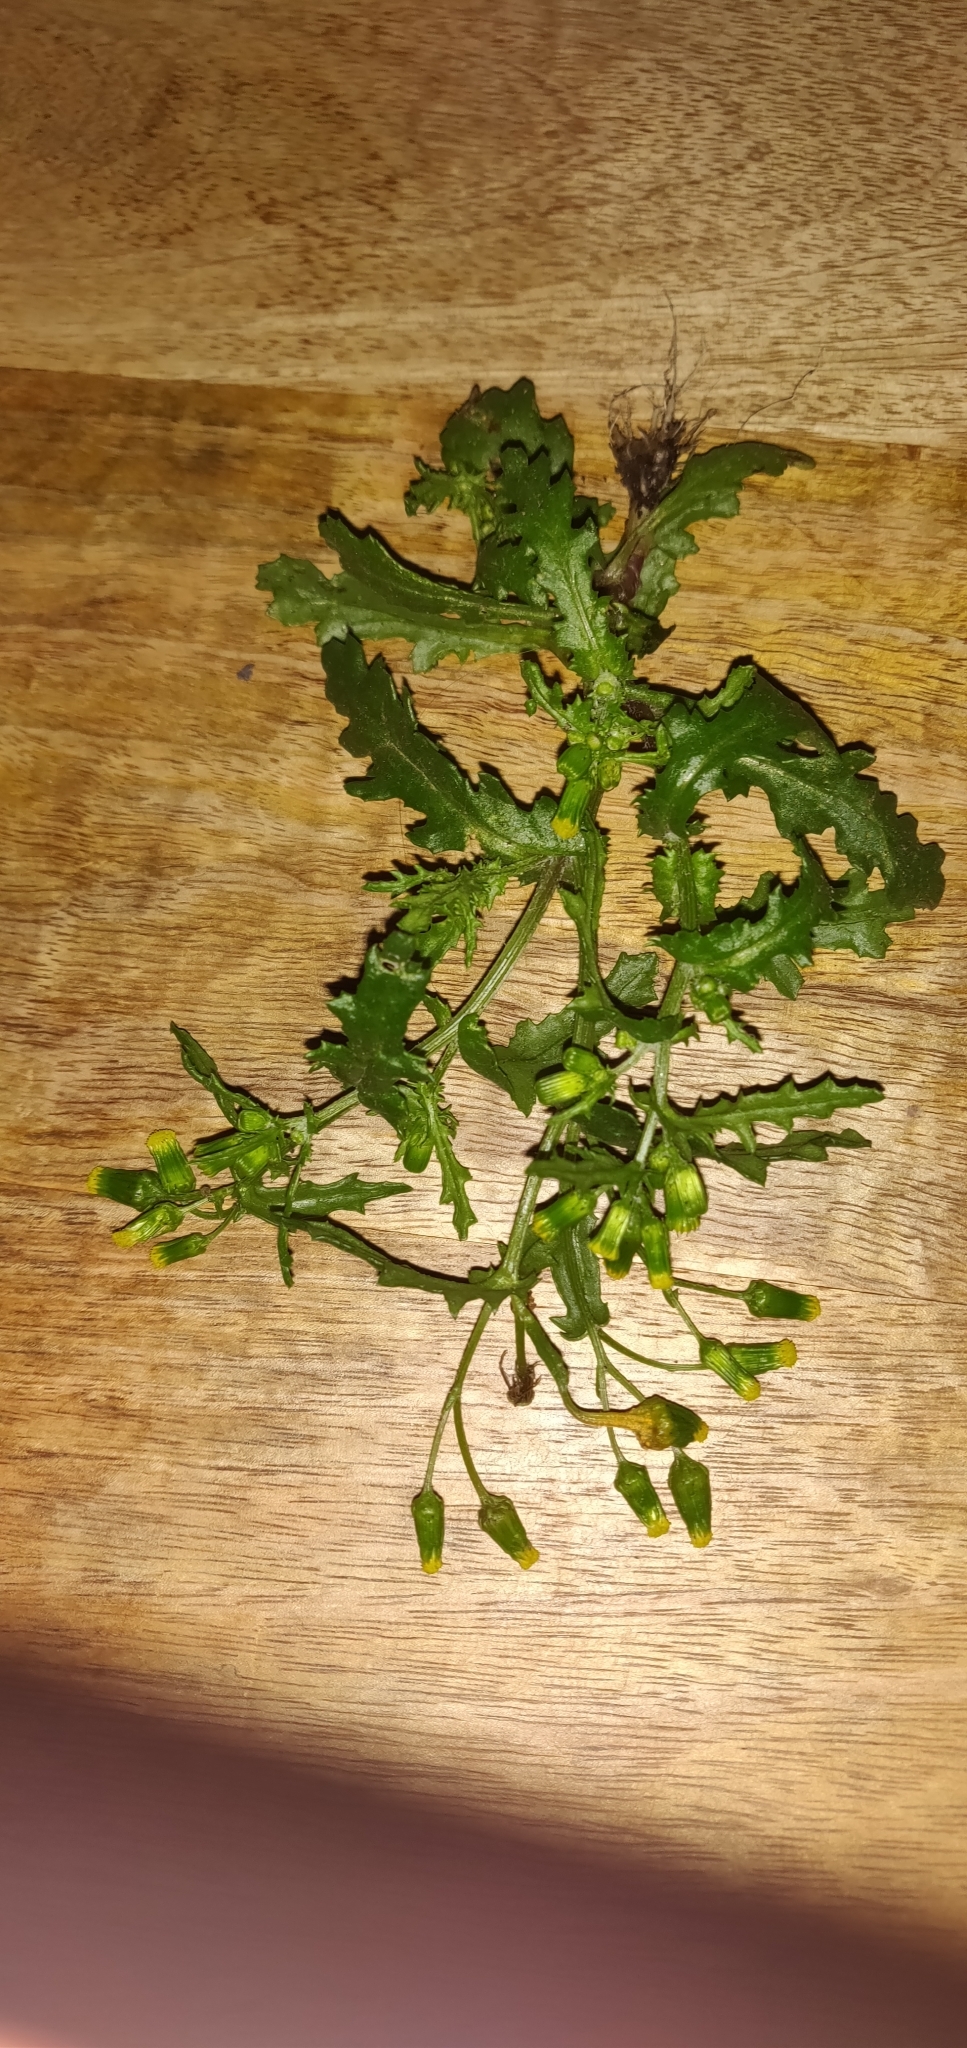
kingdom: Plantae
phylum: Tracheophyta
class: Magnoliopsida
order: Asterales
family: Asteraceae
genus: Senecio
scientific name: Senecio vulgaris
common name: Old-man-in-the-spring
